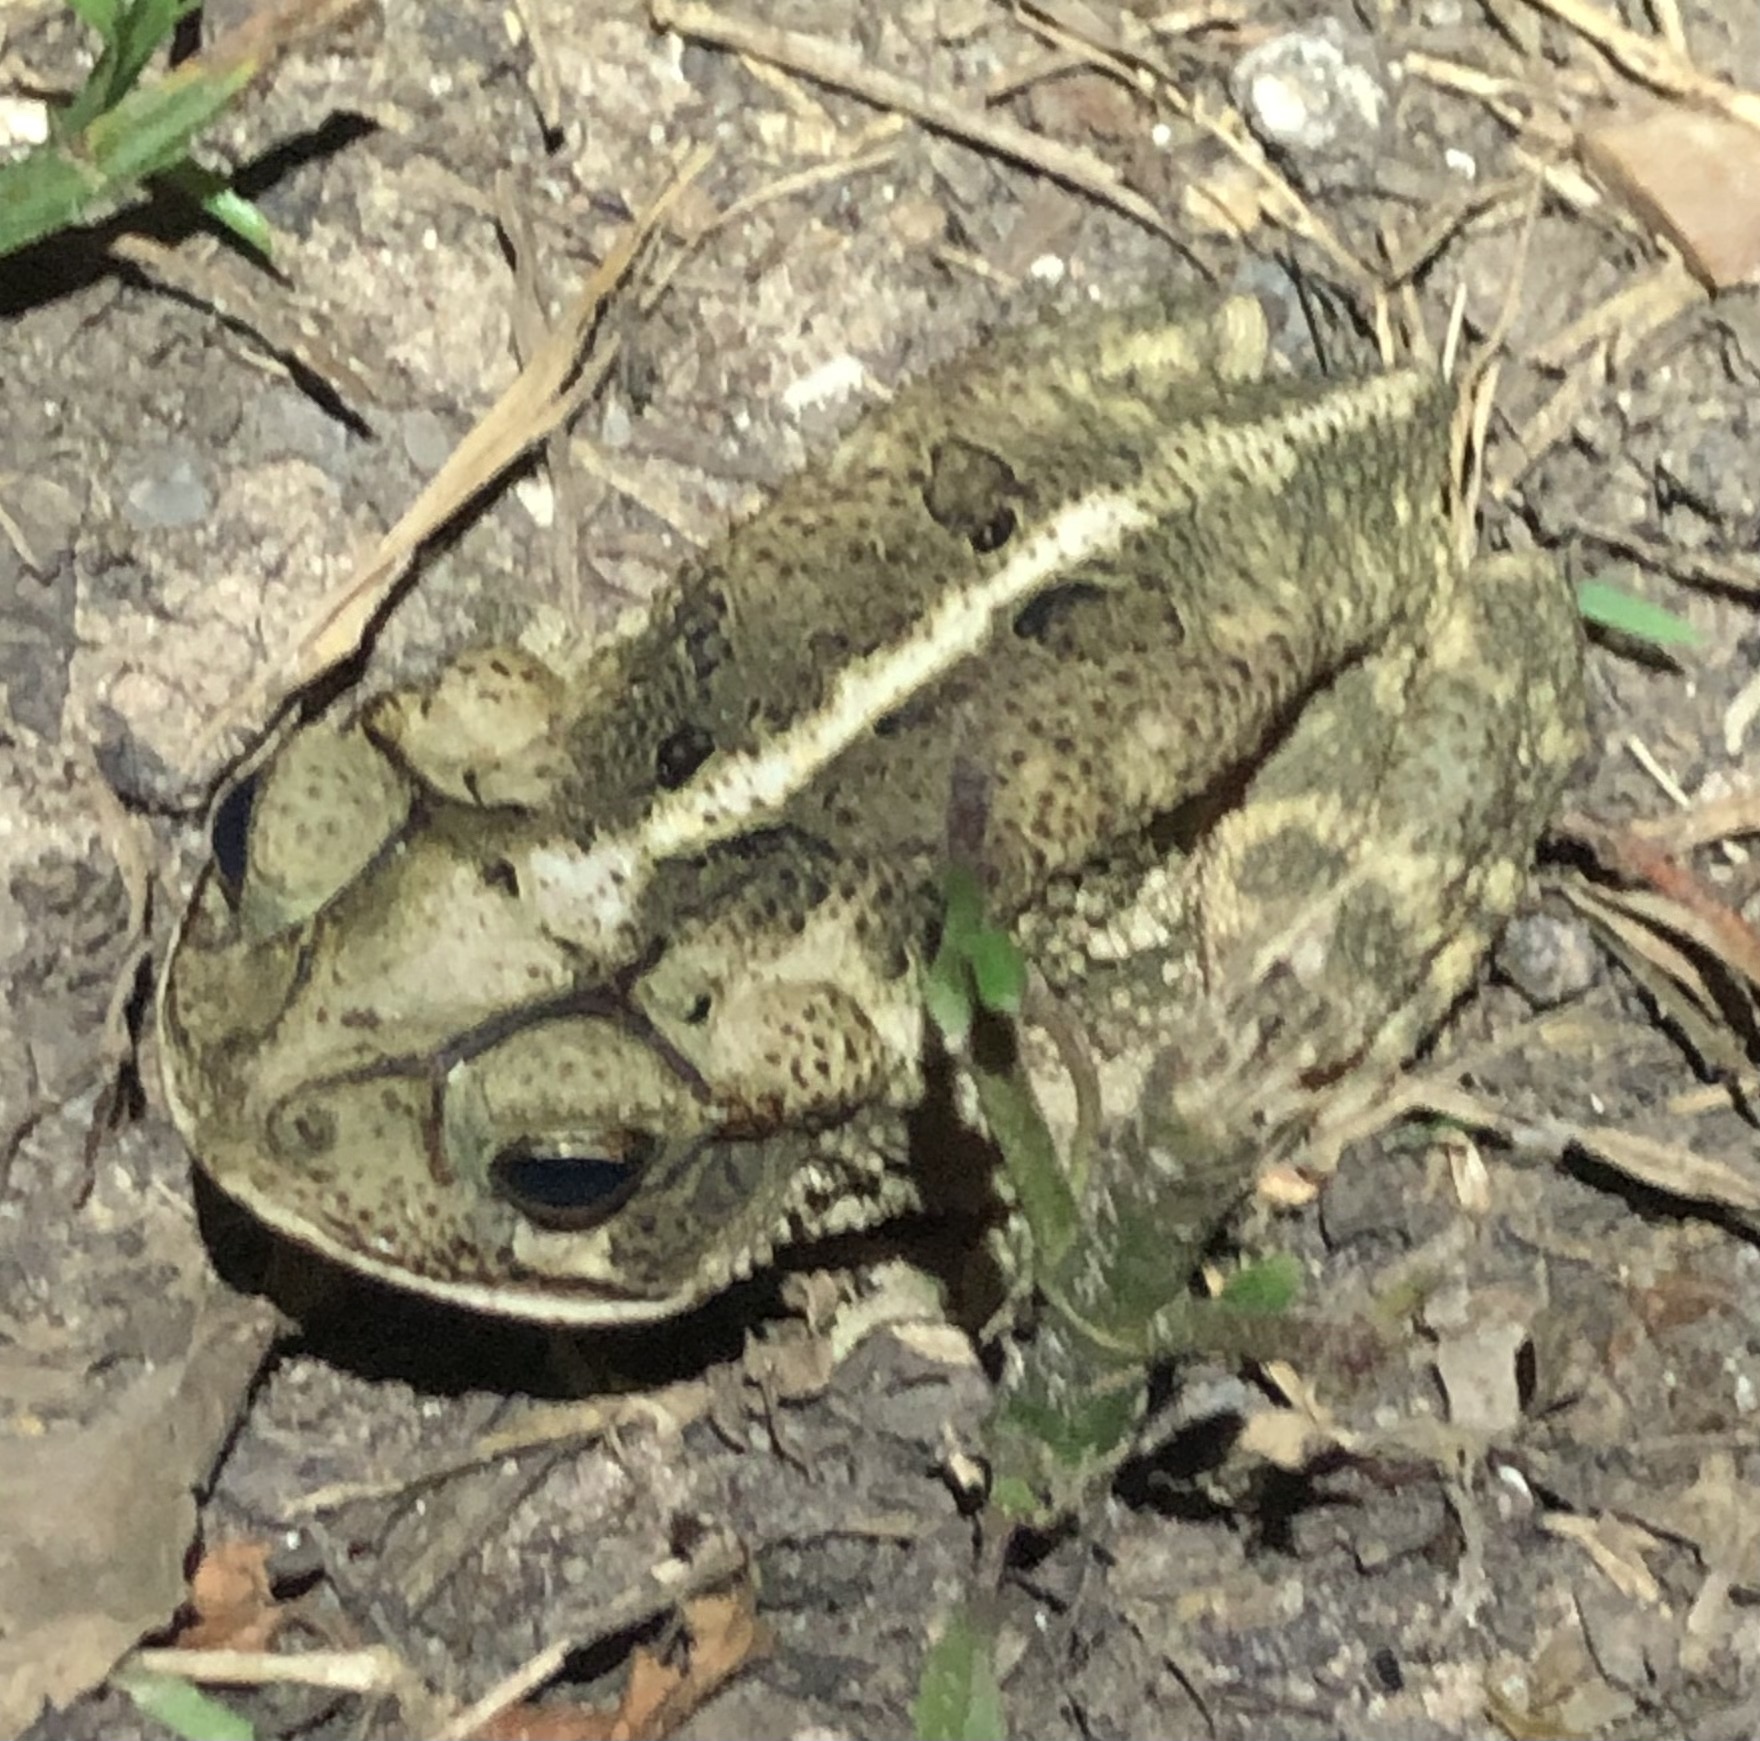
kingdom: Animalia
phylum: Chordata
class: Amphibia
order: Anura
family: Bufonidae
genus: Incilius
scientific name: Incilius nebulifer
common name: Gulf coast toad
